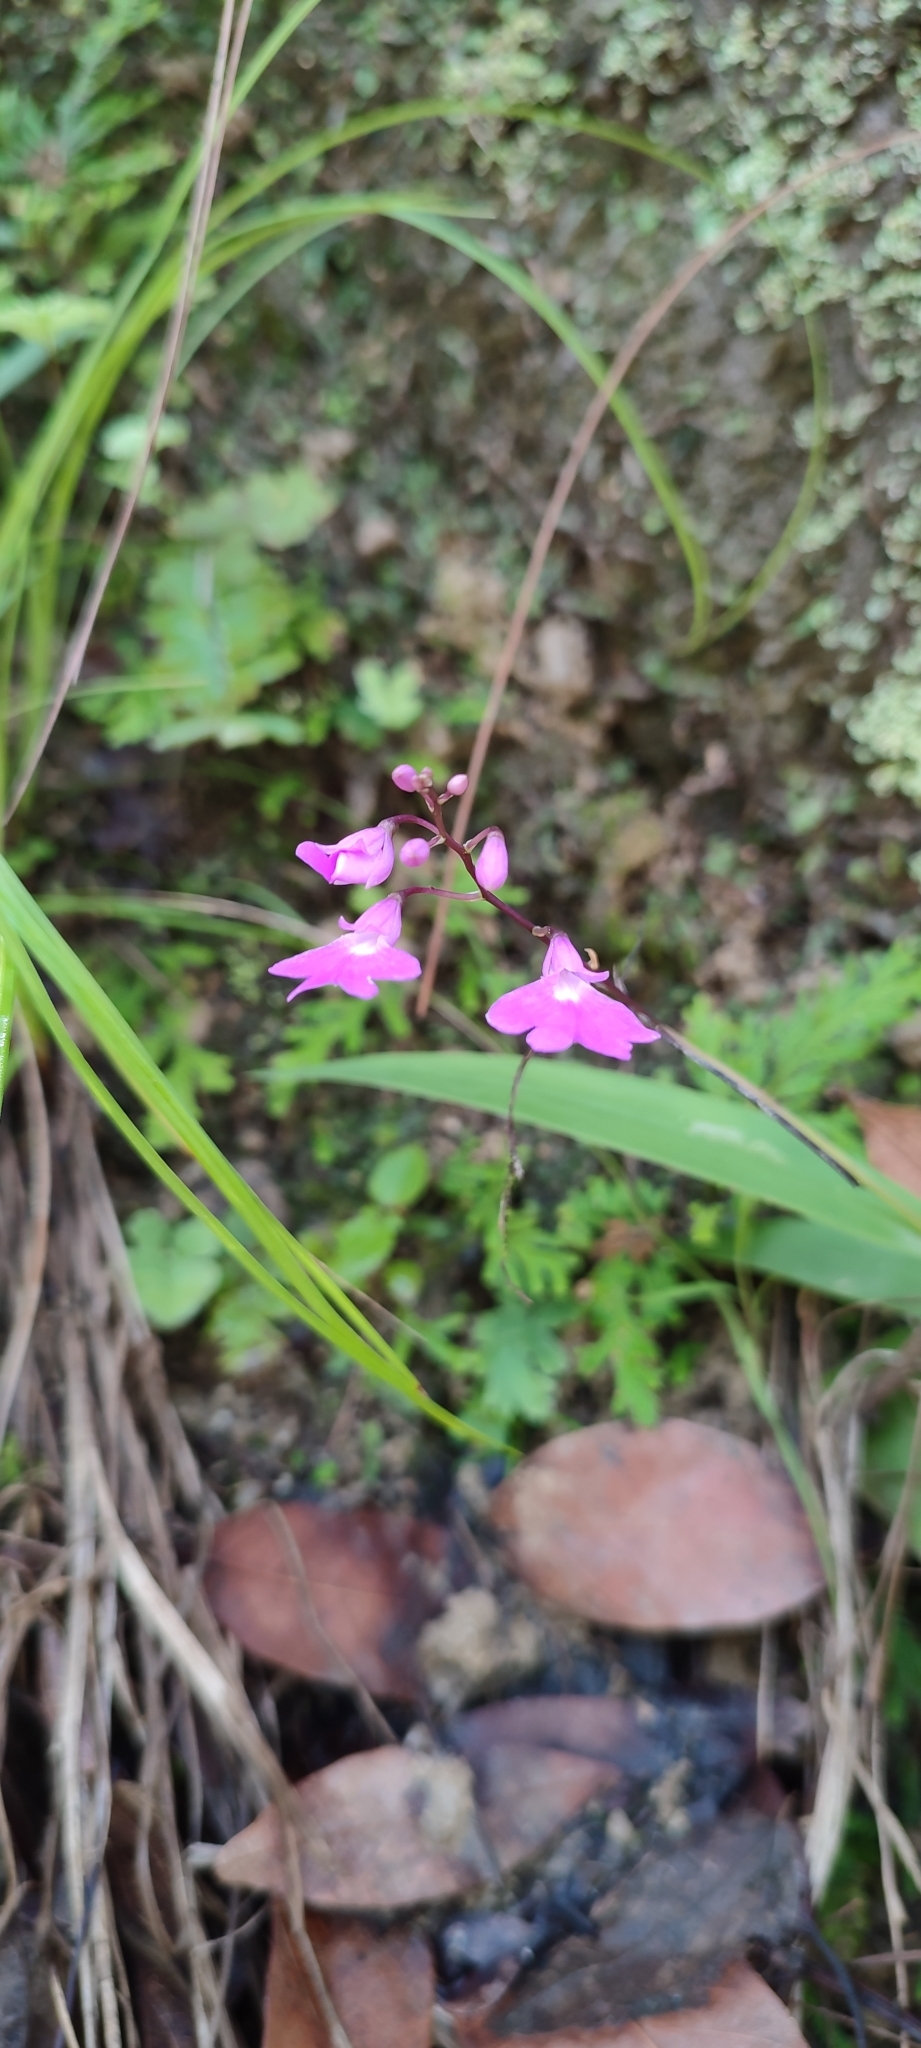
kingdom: Plantae
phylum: Tracheophyta
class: Liliopsida
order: Asparagales
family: Orchidaceae
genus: Epidendrum
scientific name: Epidendrum longicaule
